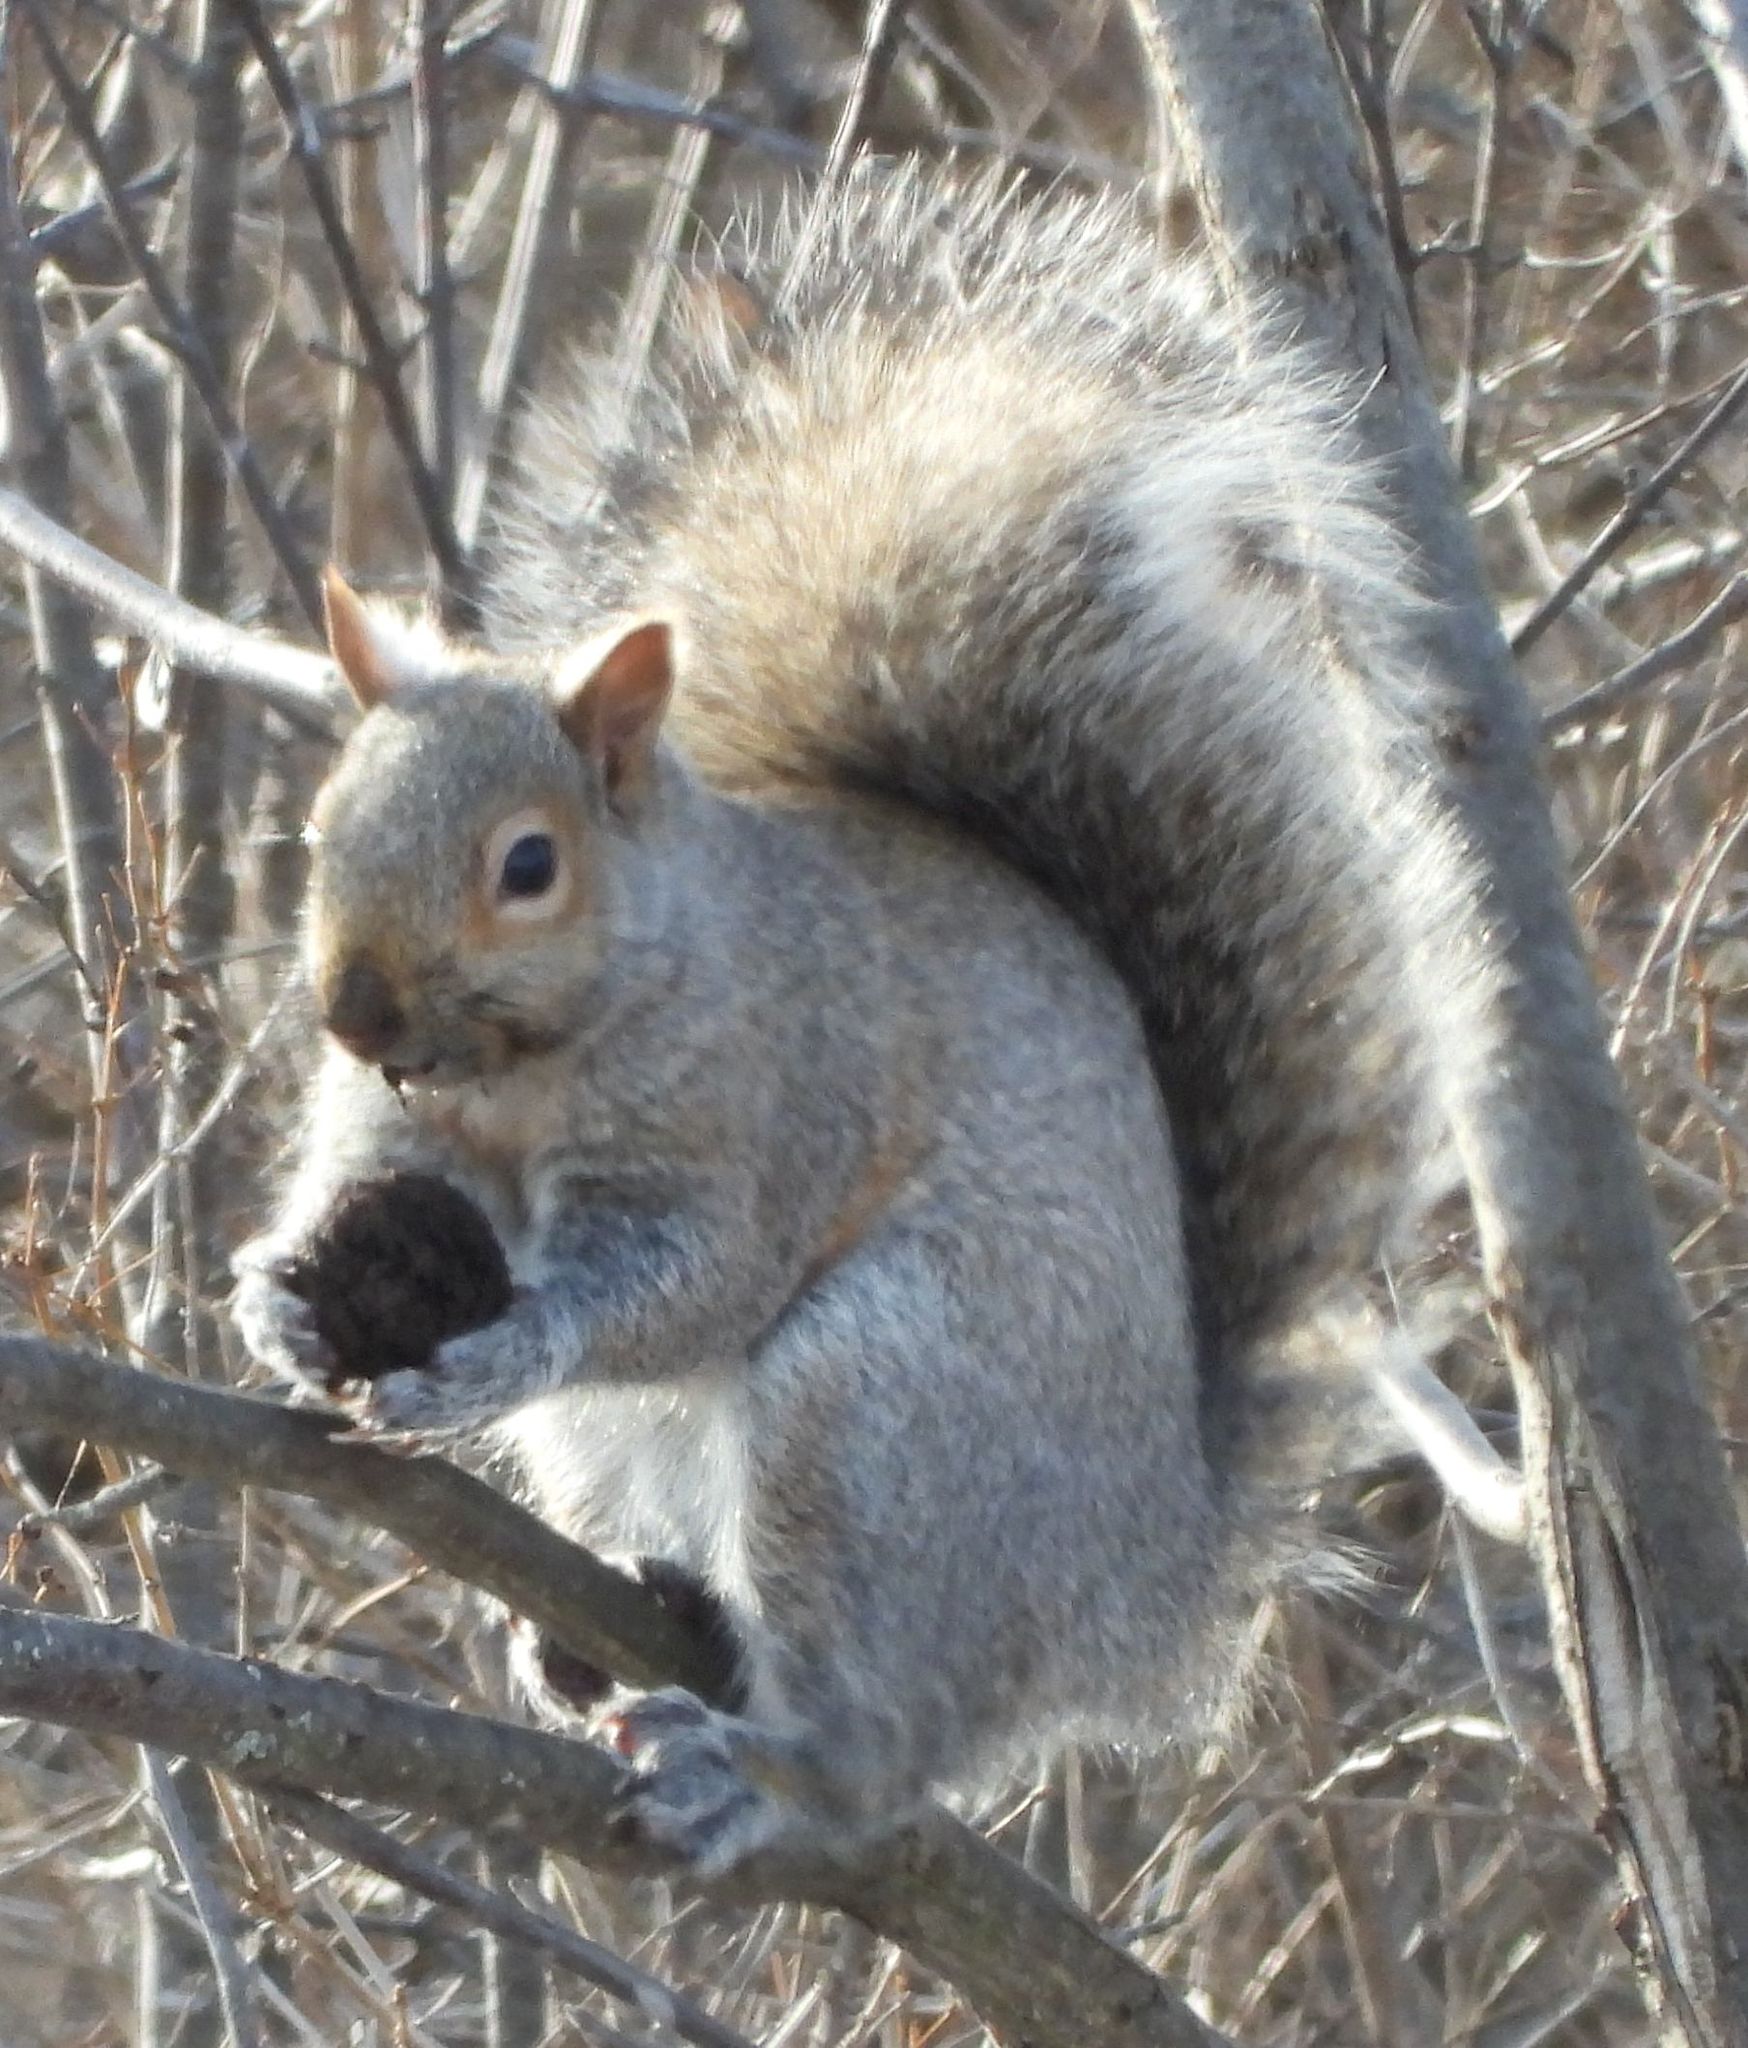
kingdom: Animalia
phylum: Chordata
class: Mammalia
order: Rodentia
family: Sciuridae
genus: Sciurus
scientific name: Sciurus carolinensis
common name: Eastern gray squirrel
